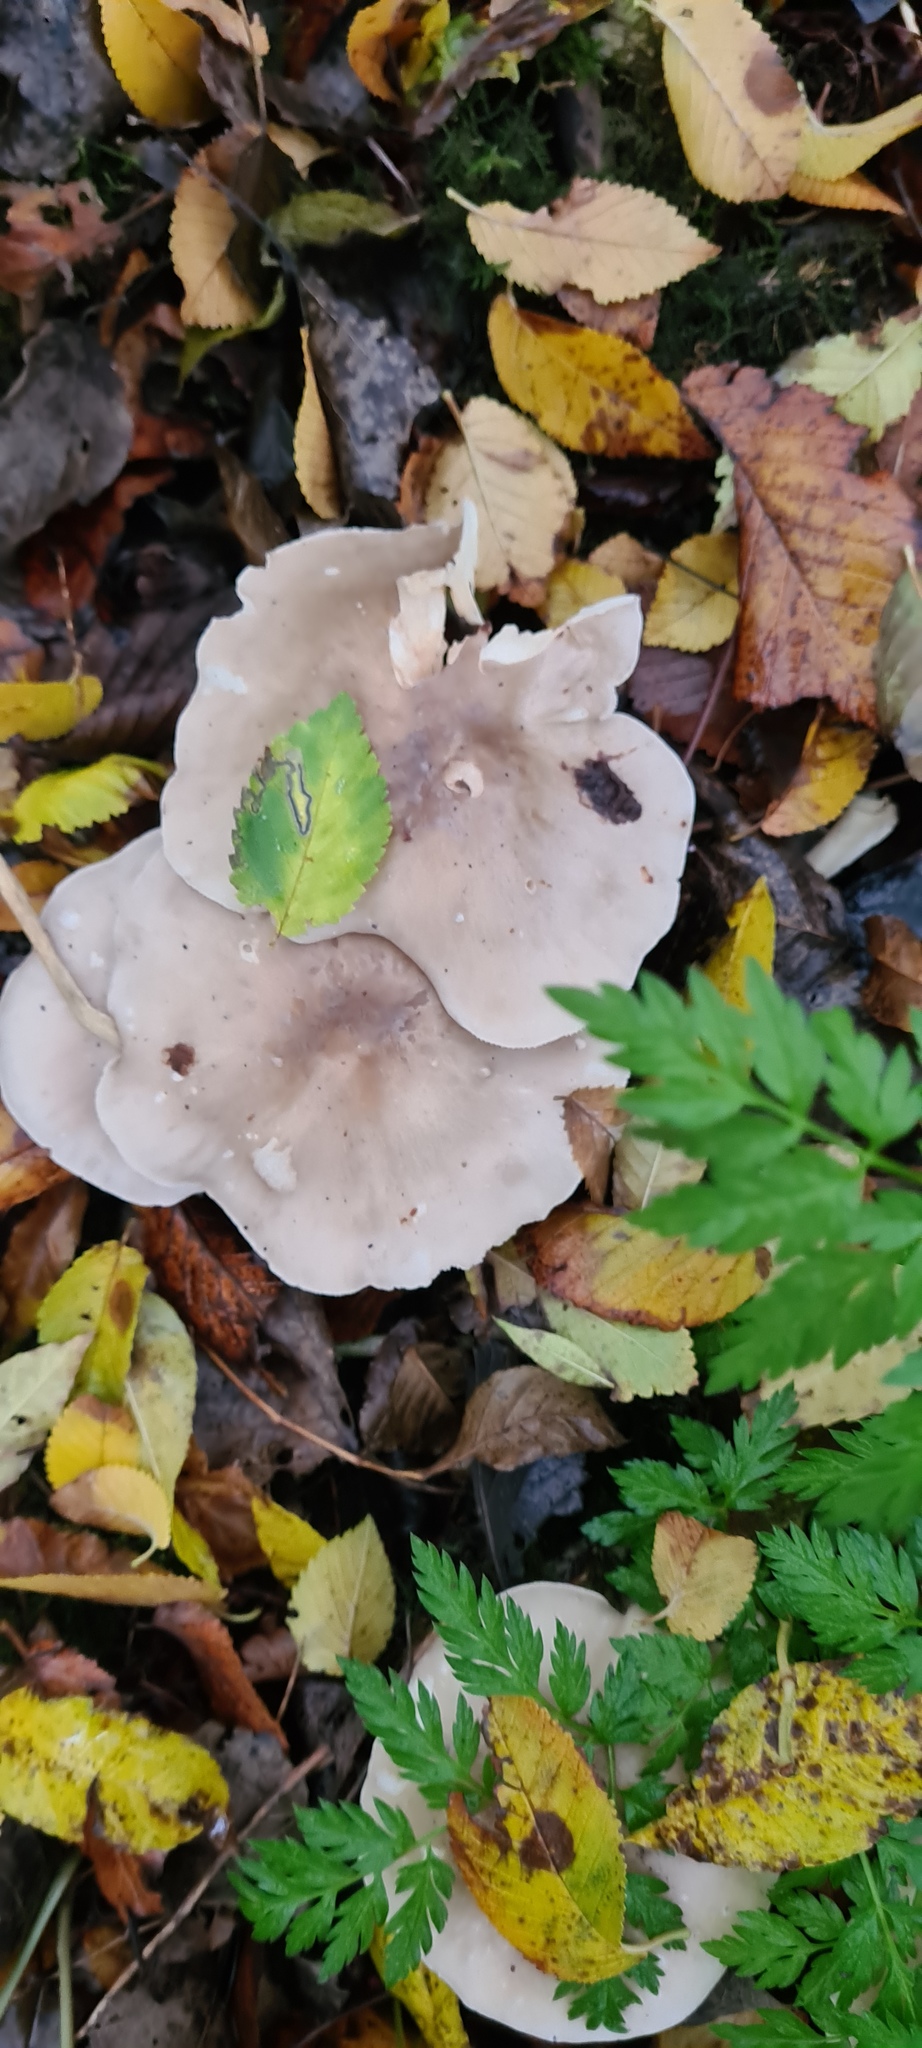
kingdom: Fungi
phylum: Basidiomycota
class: Agaricomycetes
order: Agaricales
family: Tricholomataceae
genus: Clitocybe
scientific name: Clitocybe nebularis
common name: Clouded agaric
